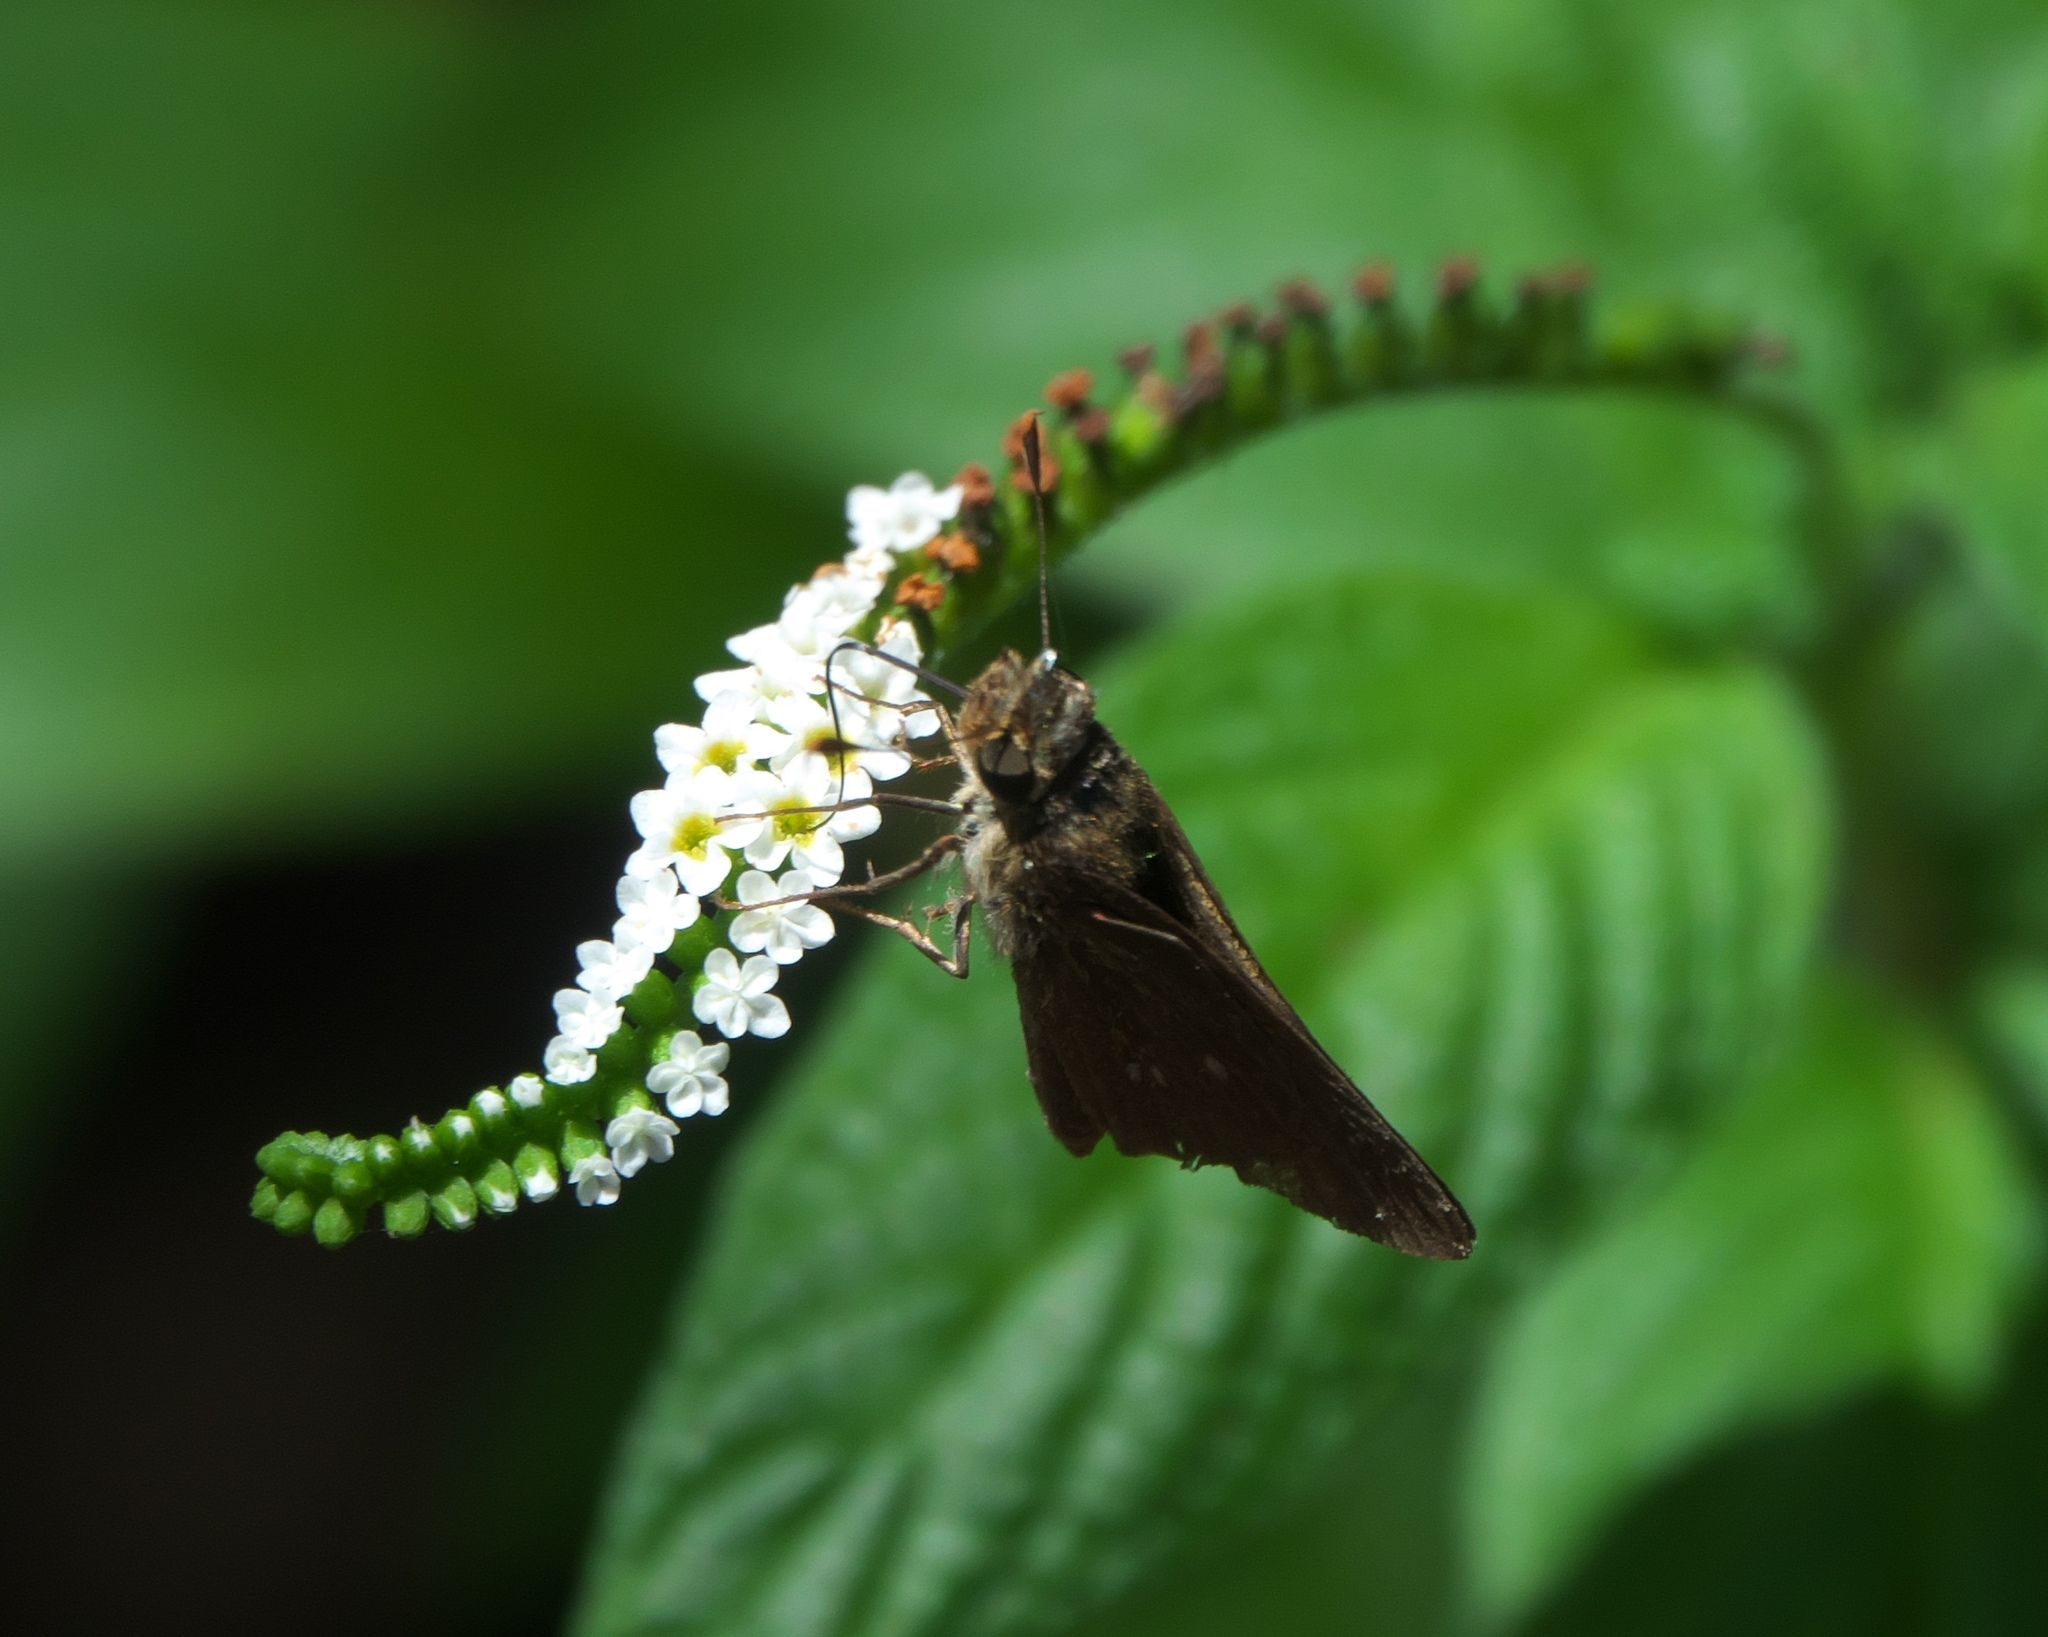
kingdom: Animalia
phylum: Arthropoda
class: Insecta
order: Lepidoptera
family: Hesperiidae
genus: Panoquina
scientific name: Panoquina panoquinoides
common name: Beach skipper
